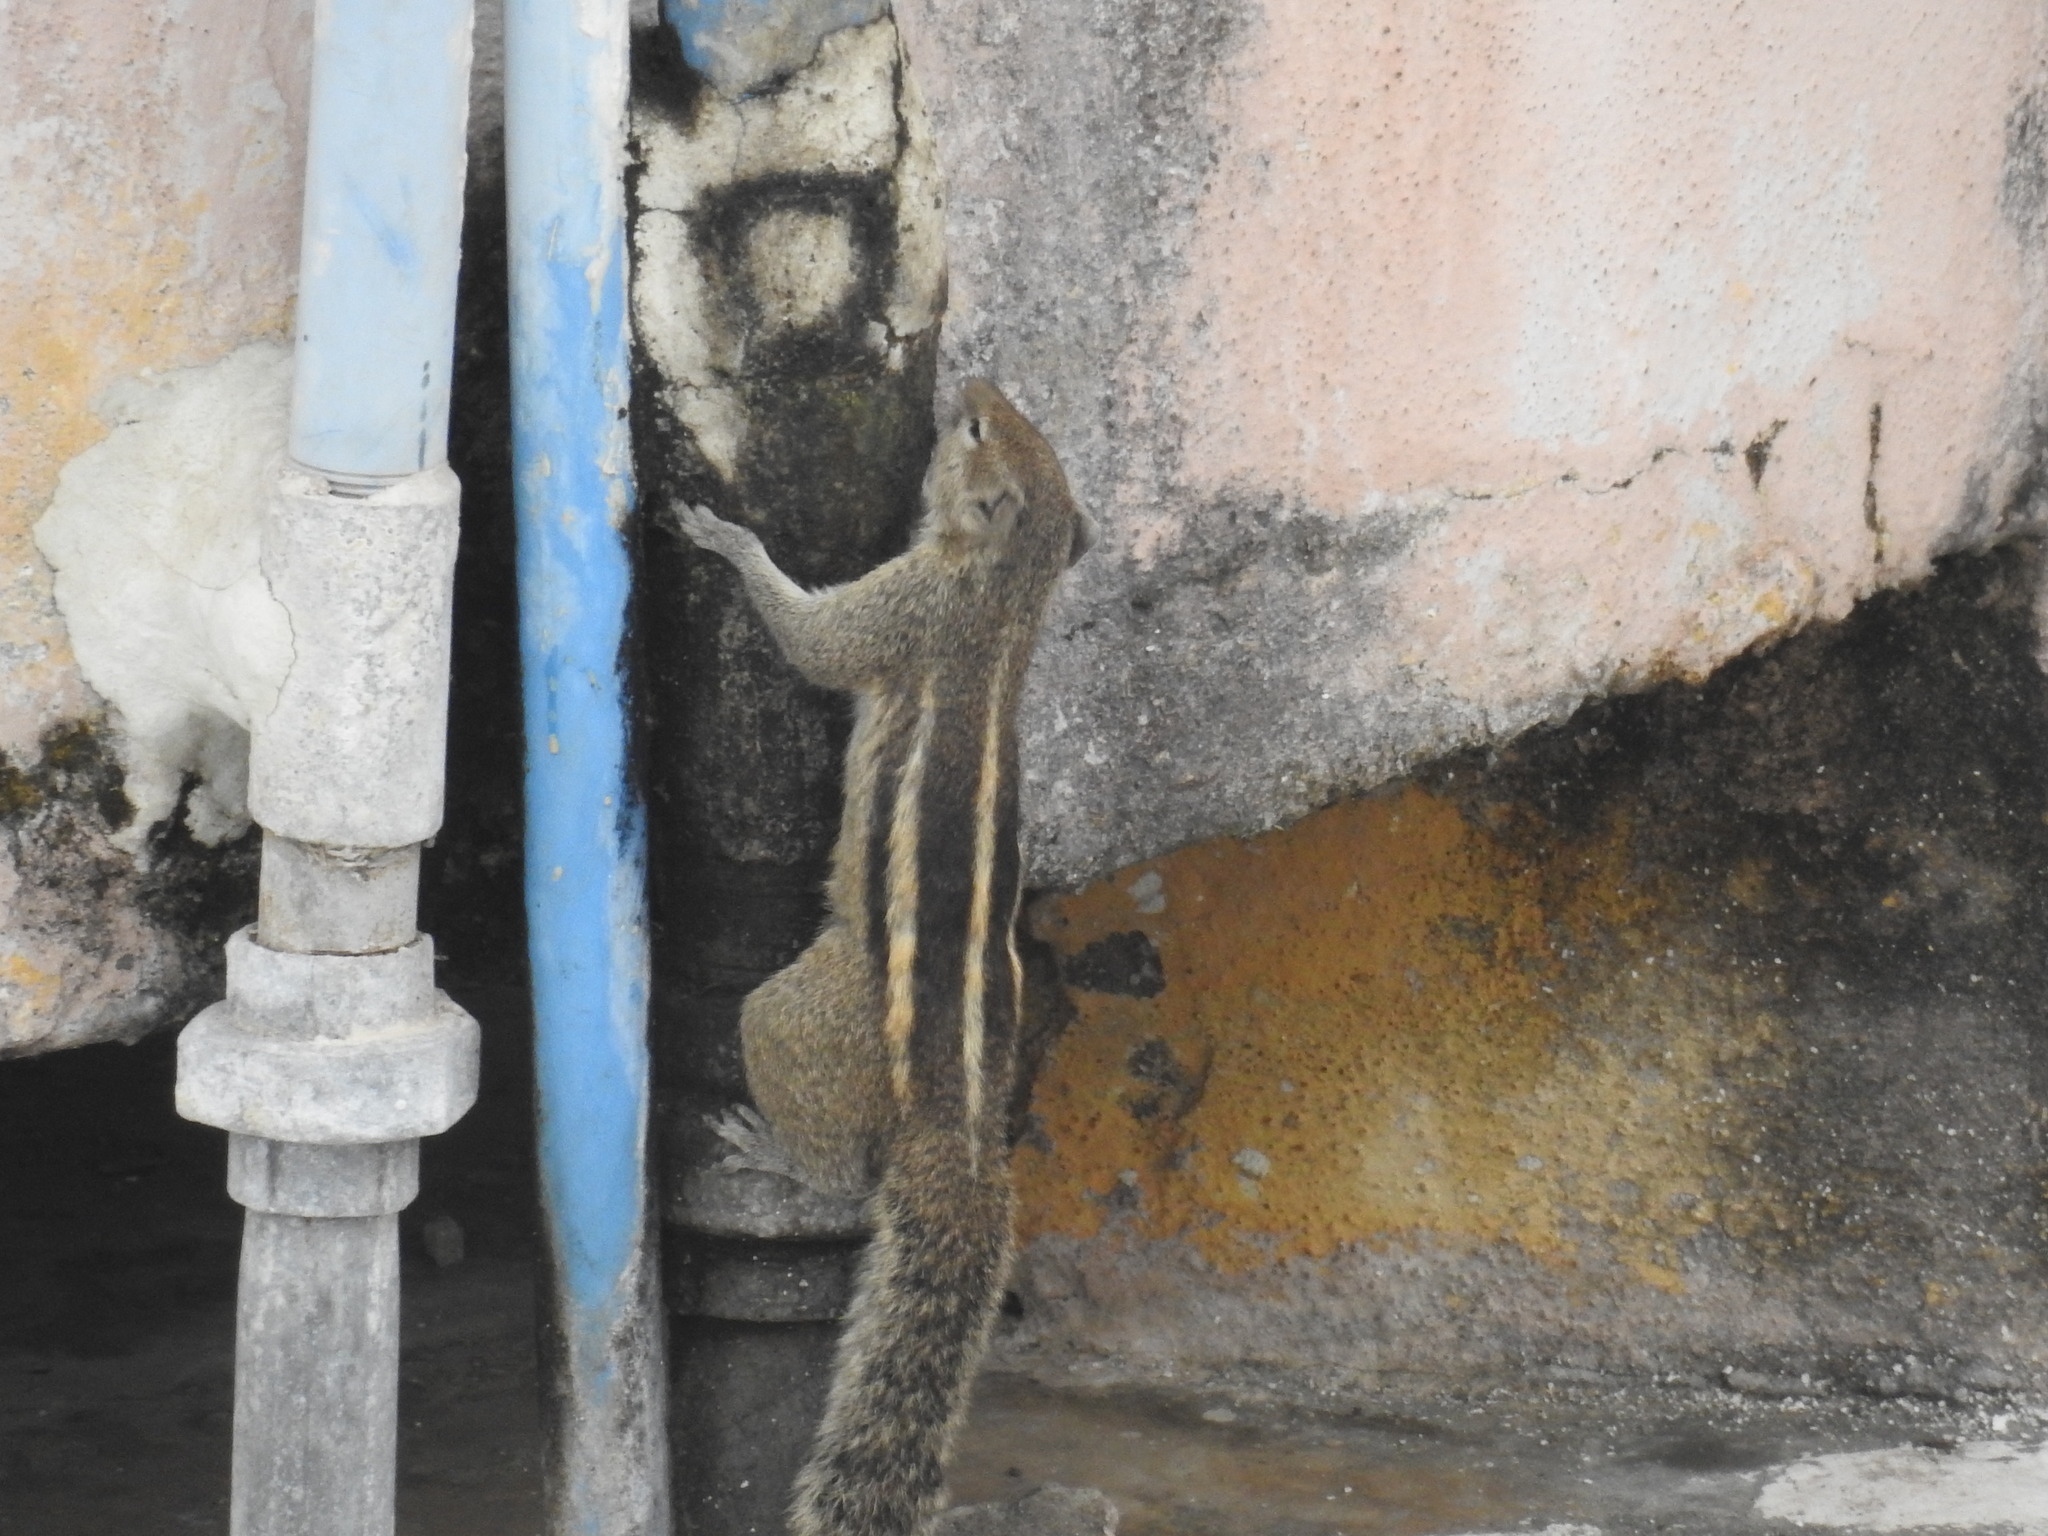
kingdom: Animalia
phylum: Chordata
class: Mammalia
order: Rodentia
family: Sciuridae
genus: Funambulus
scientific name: Funambulus palmarum
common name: Indian palm squirrel
